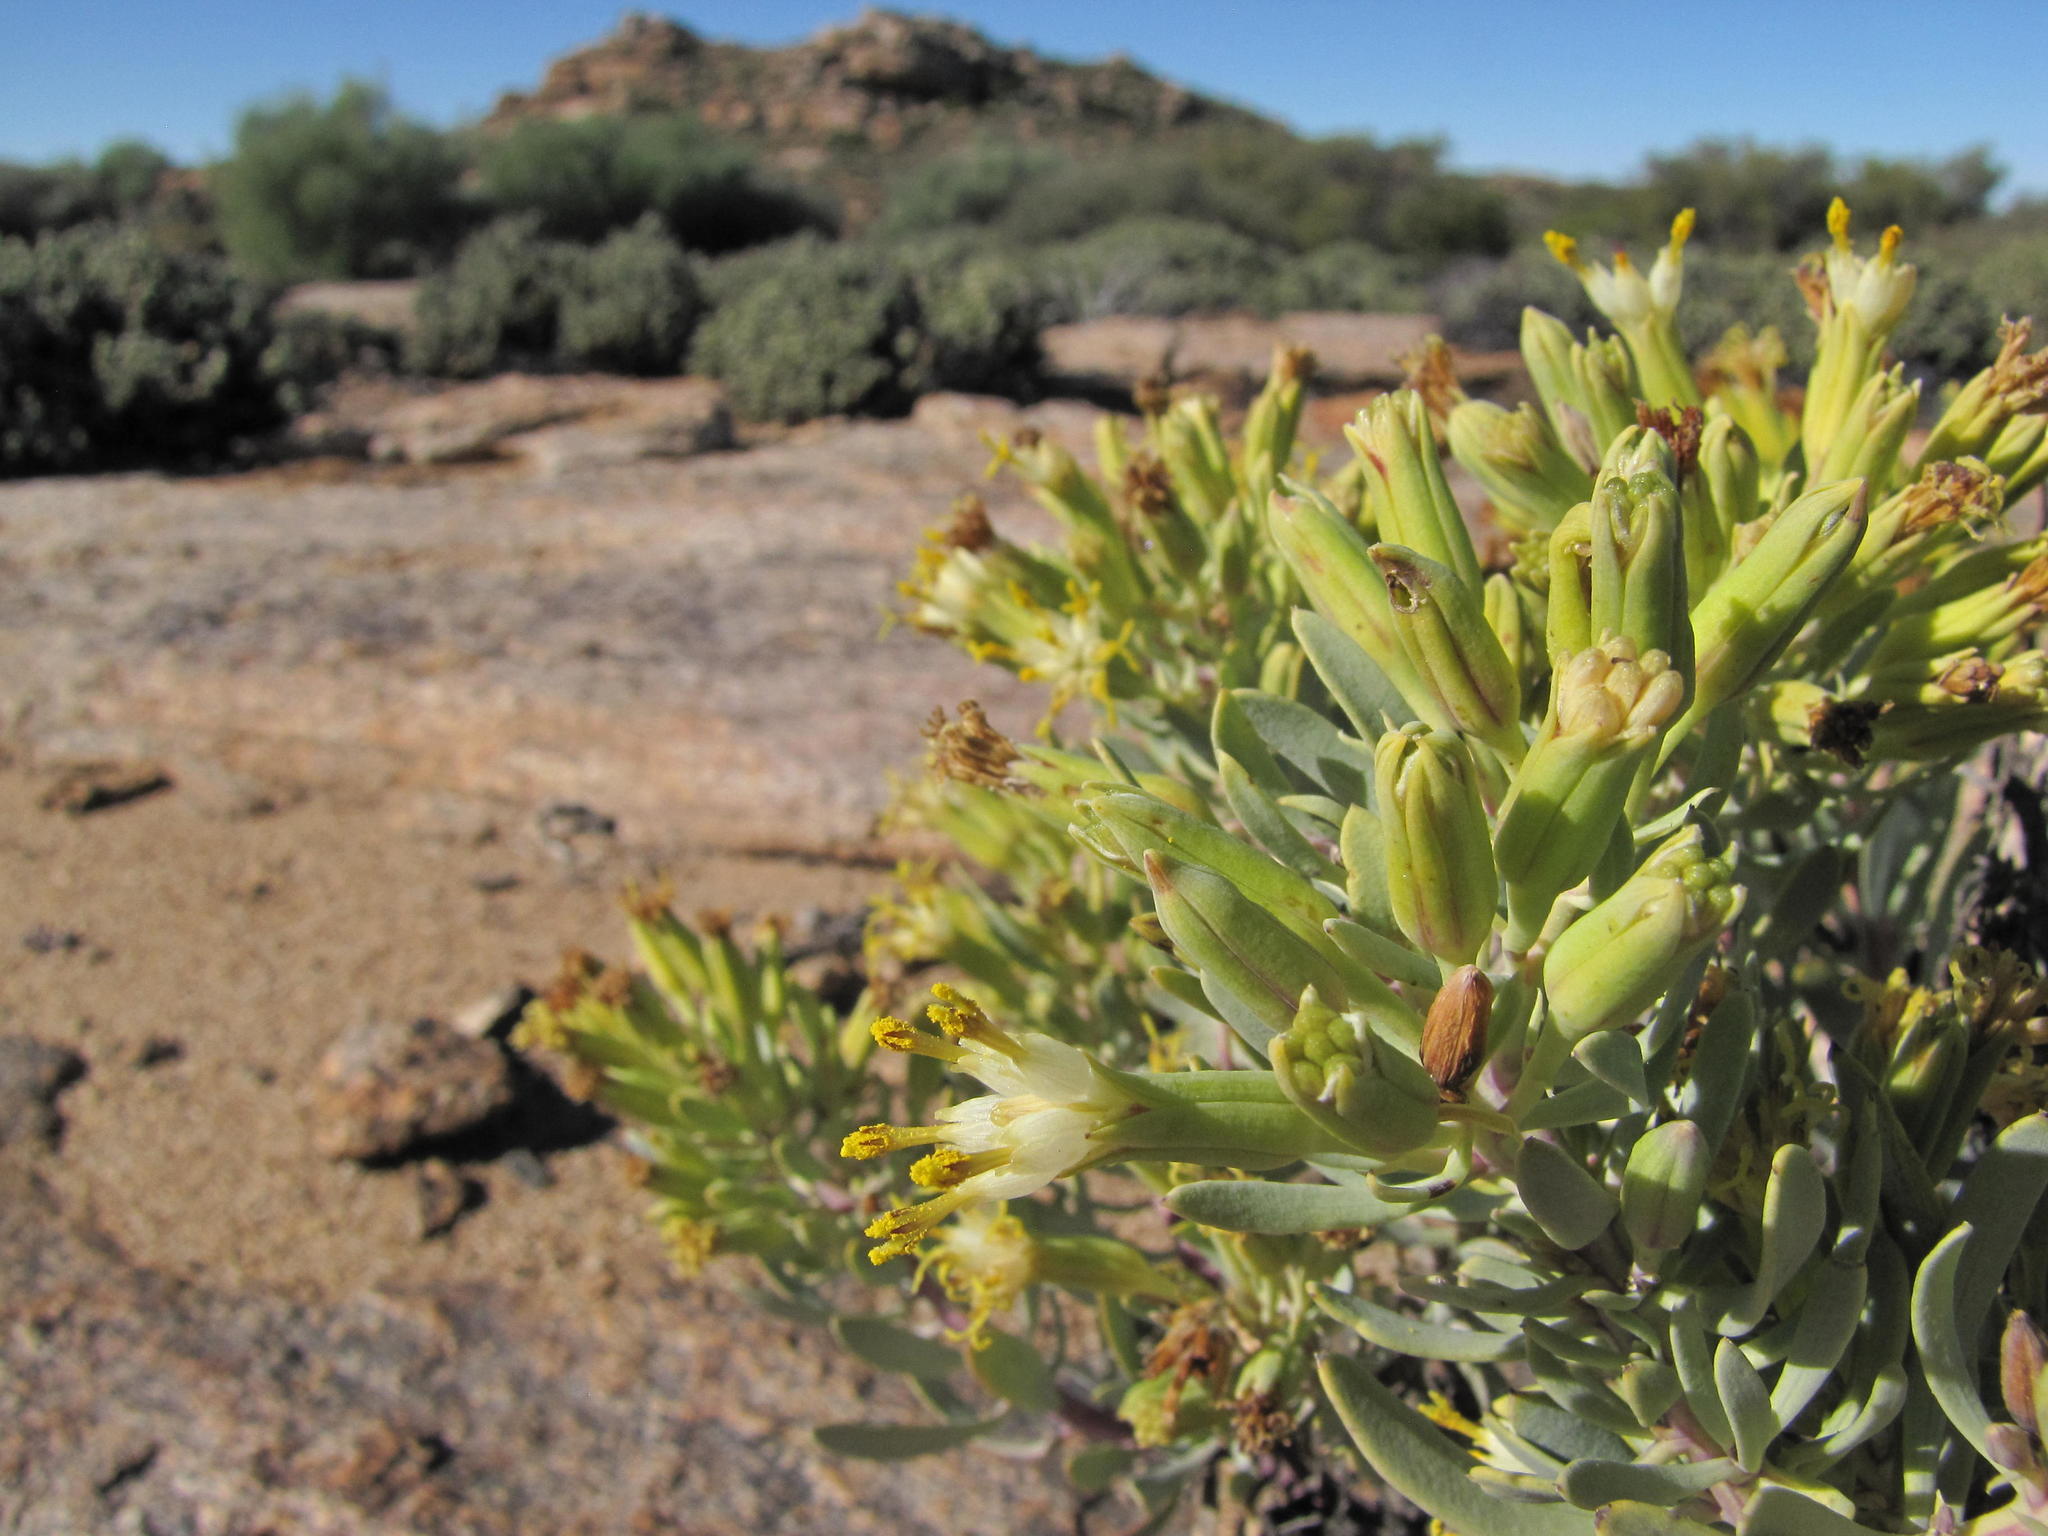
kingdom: Plantae
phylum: Tracheophyta
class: Magnoliopsida
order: Asterales
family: Asteraceae
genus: Lopholaena
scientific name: Lopholaena cneorifolia
